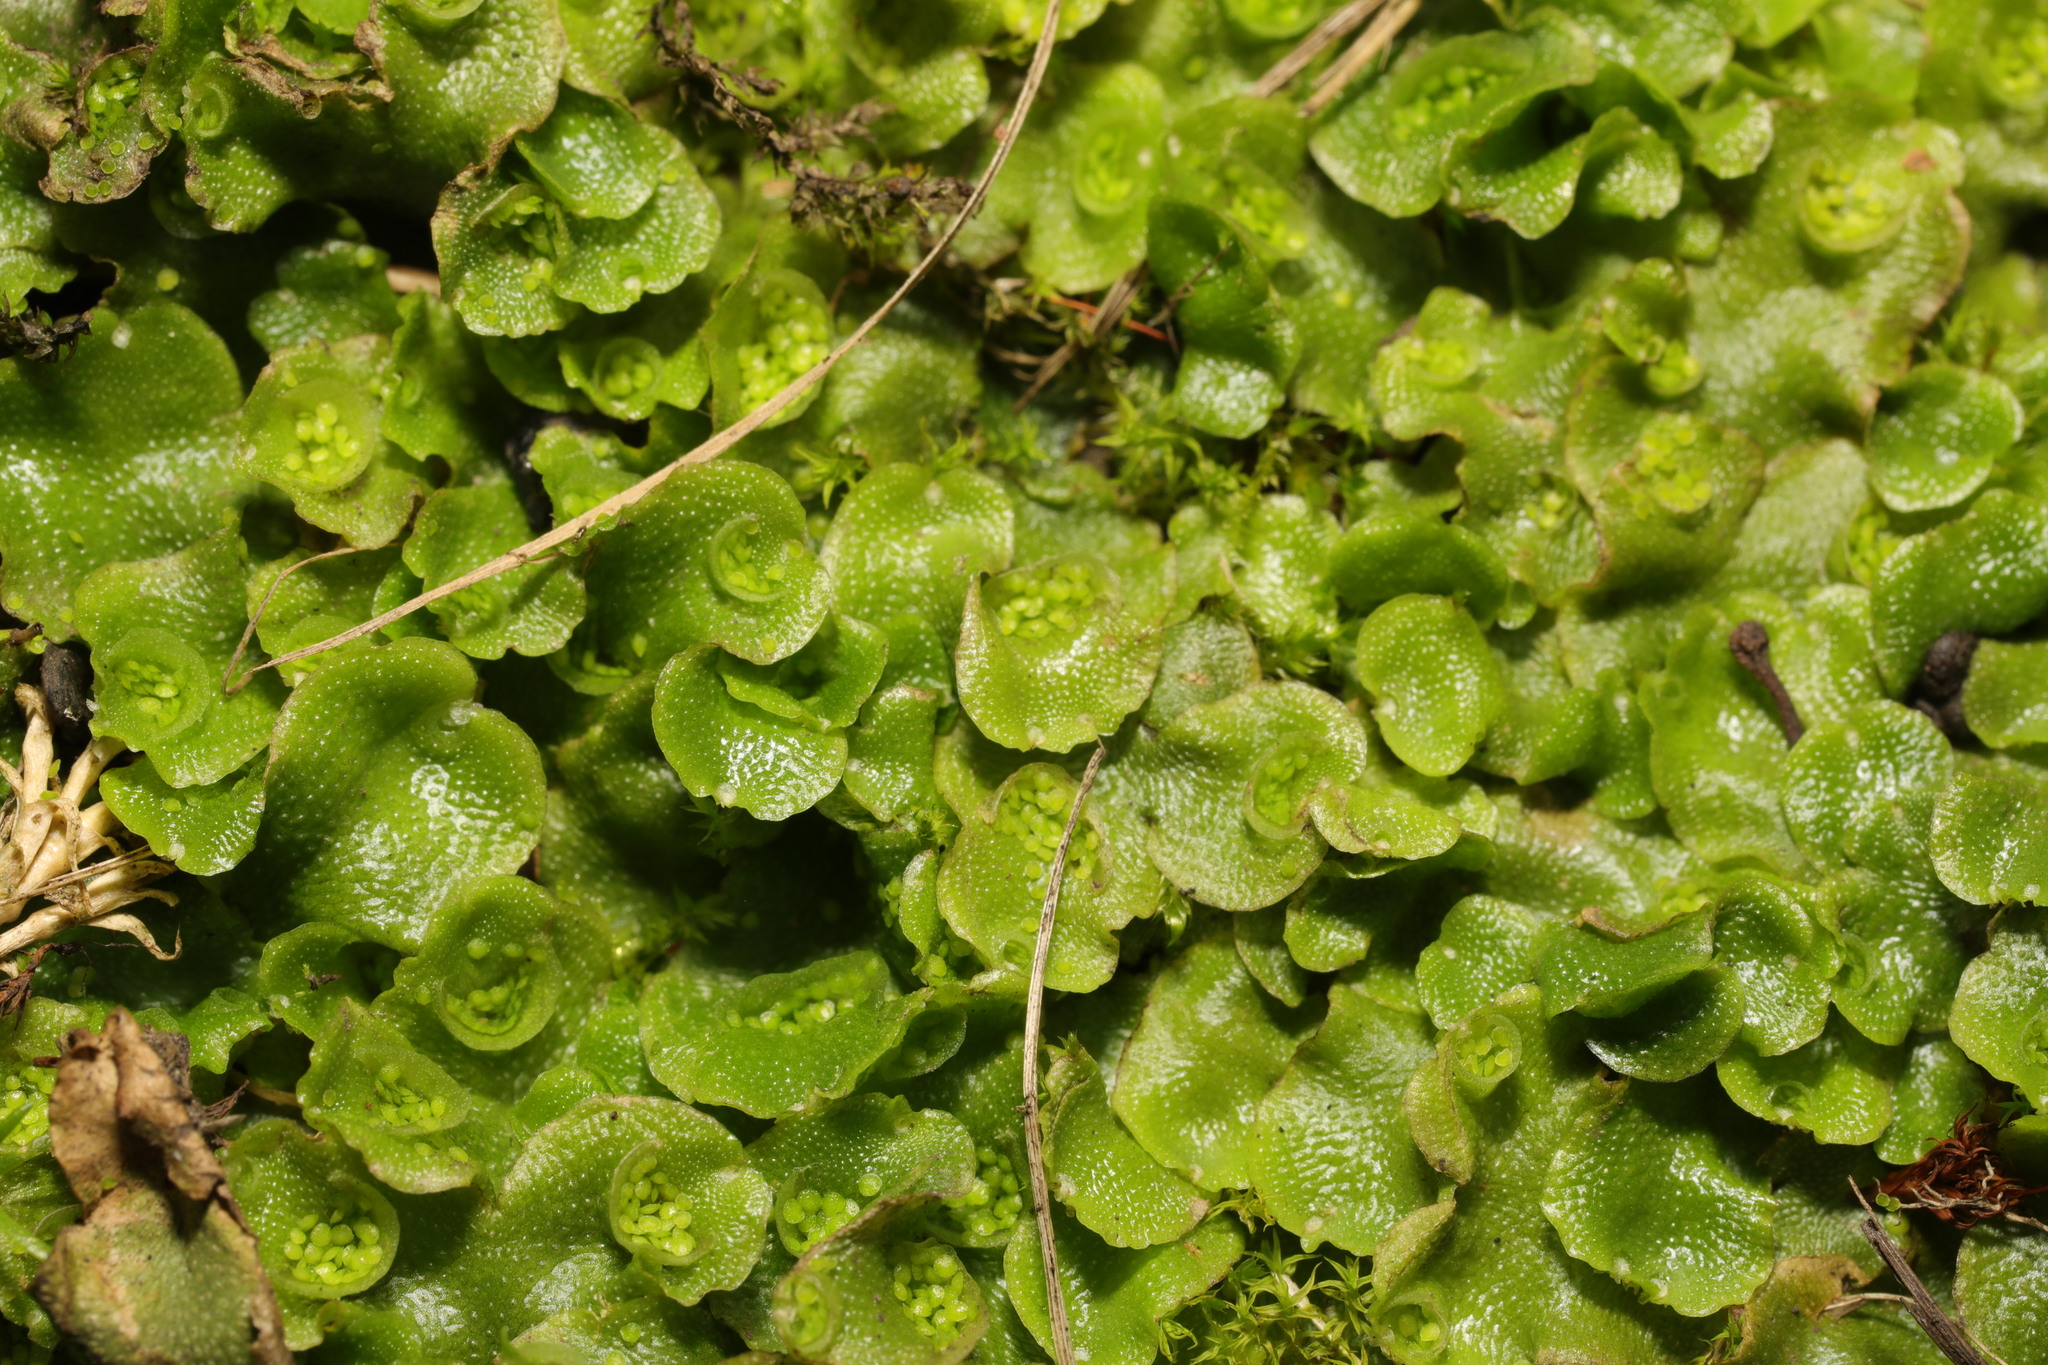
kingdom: Plantae
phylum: Marchantiophyta
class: Marchantiopsida
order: Lunulariales
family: Lunulariaceae
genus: Lunularia
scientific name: Lunularia cruciata
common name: Crescent-cup liverwort
